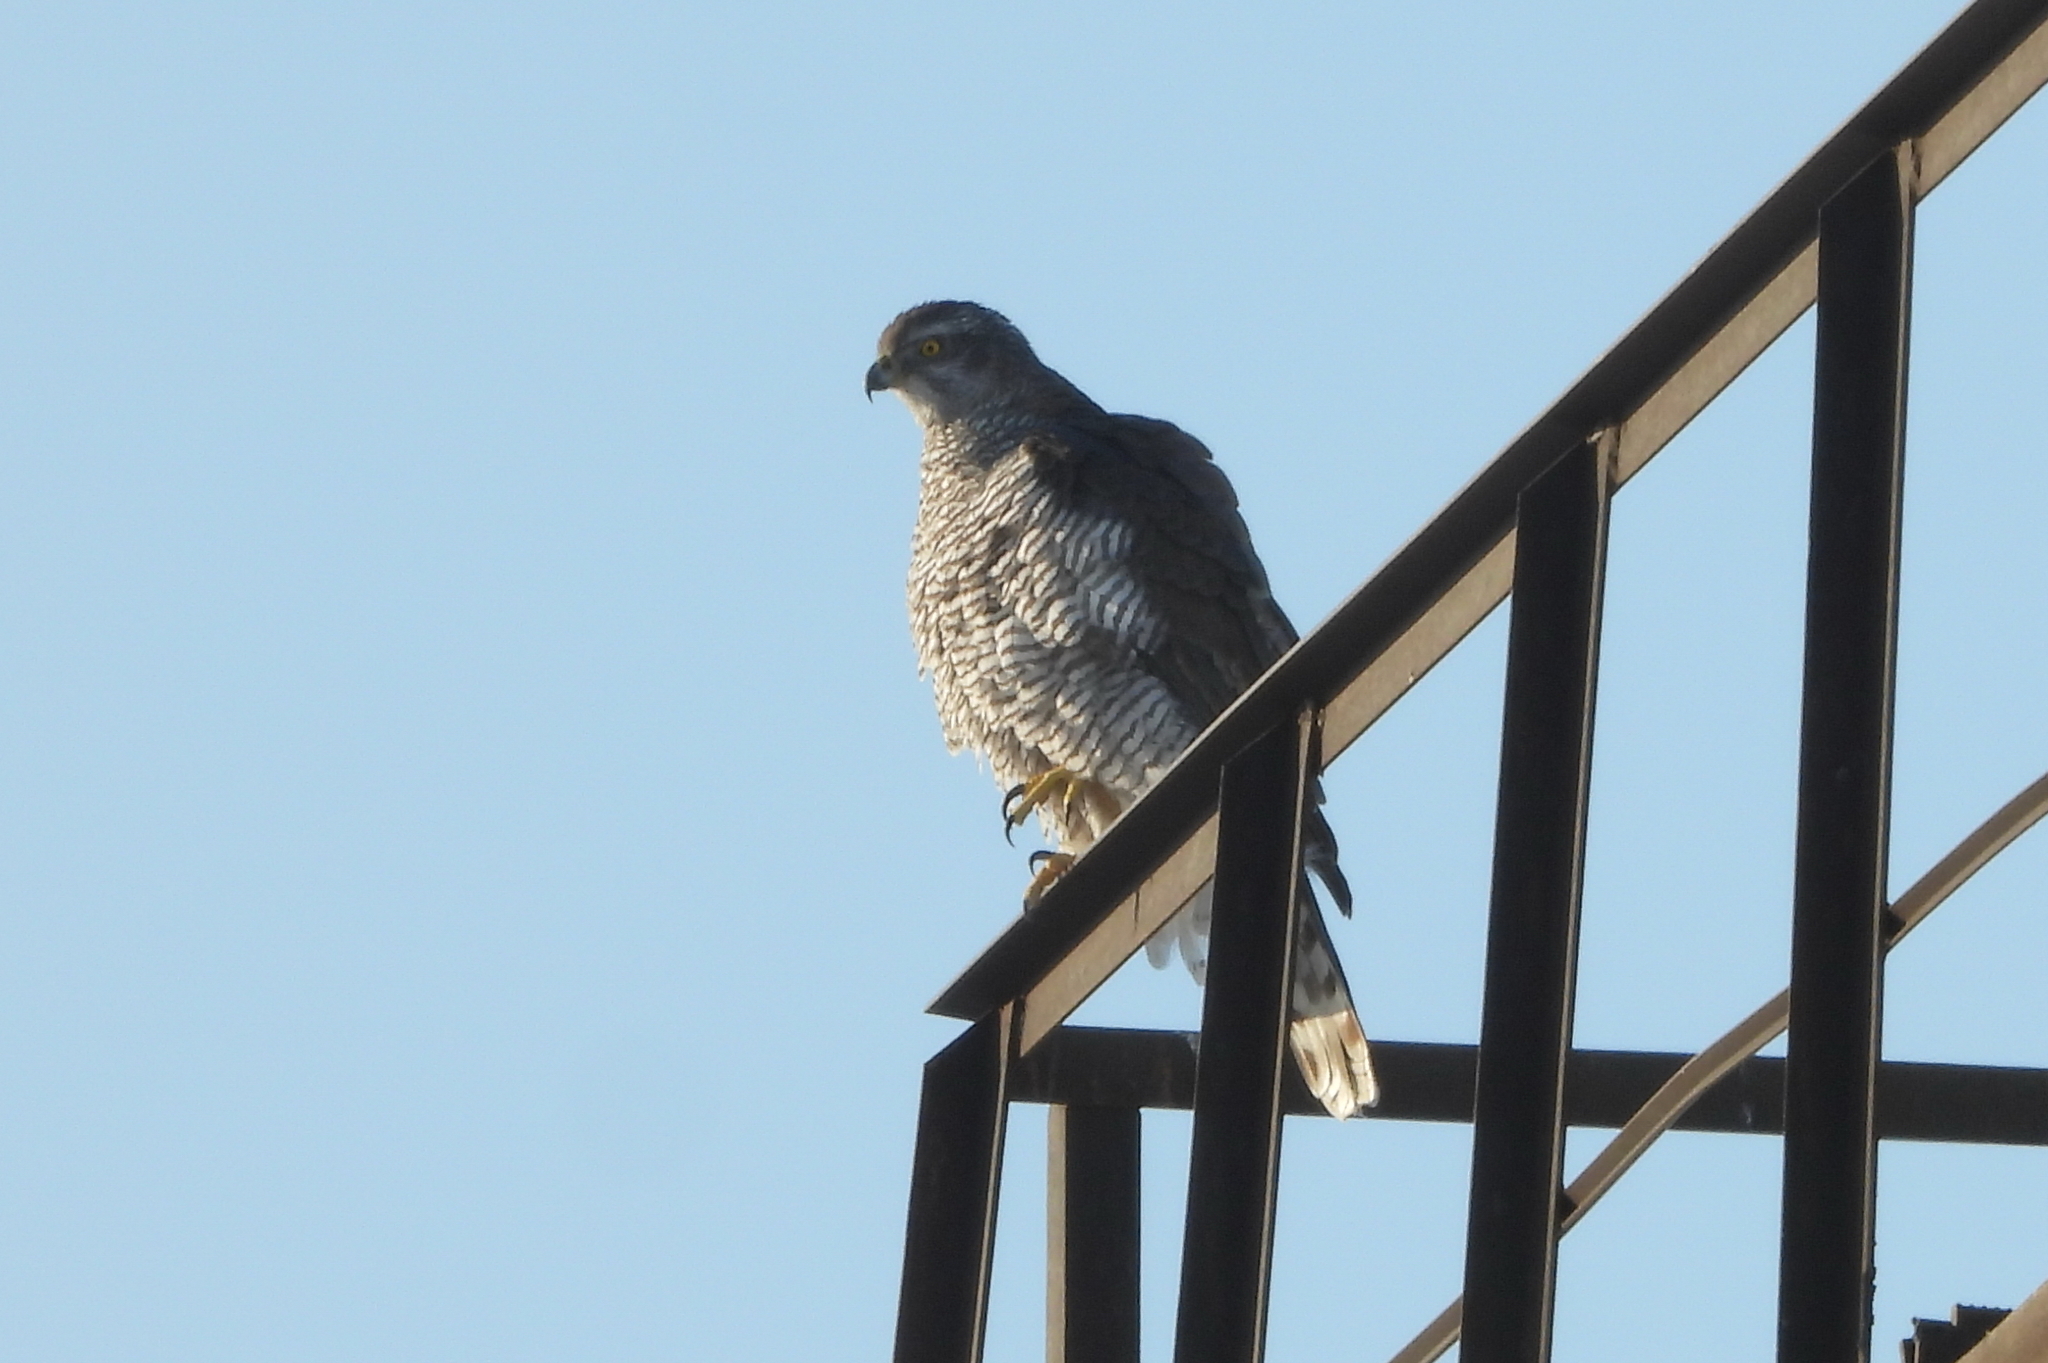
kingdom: Animalia
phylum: Chordata
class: Aves
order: Accipitriformes
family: Accipitridae
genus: Accipiter
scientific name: Accipiter gentilis
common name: Northern goshawk
